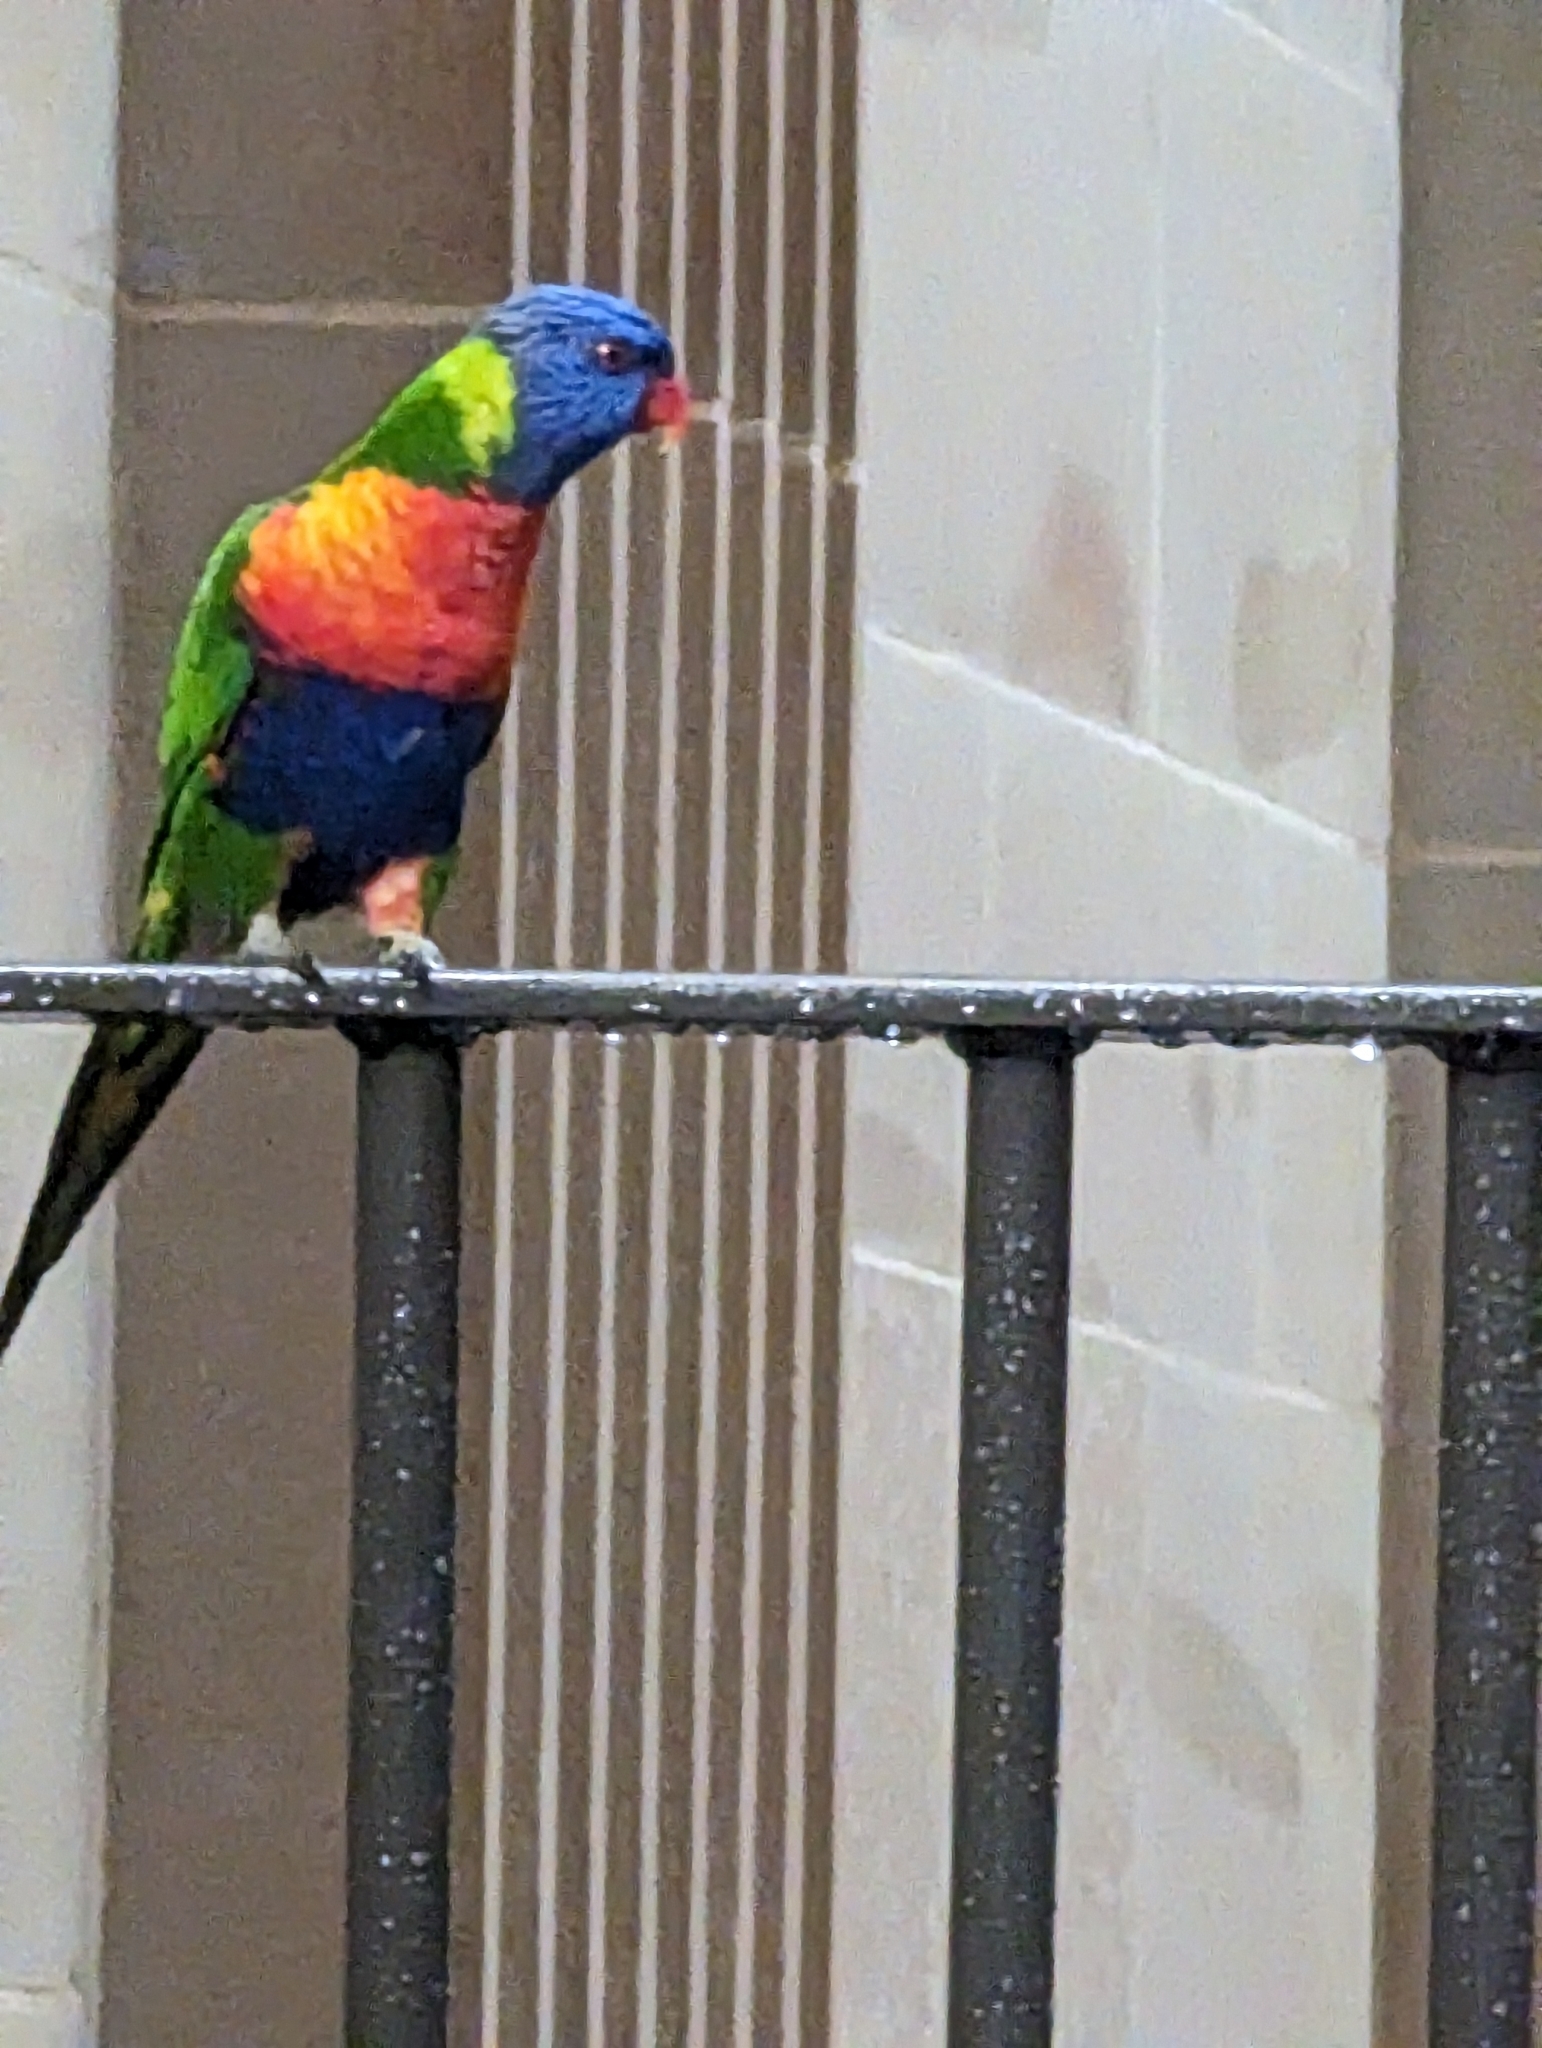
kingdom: Animalia
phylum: Chordata
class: Aves
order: Psittaciformes
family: Psittacidae
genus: Trichoglossus
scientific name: Trichoglossus haematodus
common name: Coconut lorikeet
